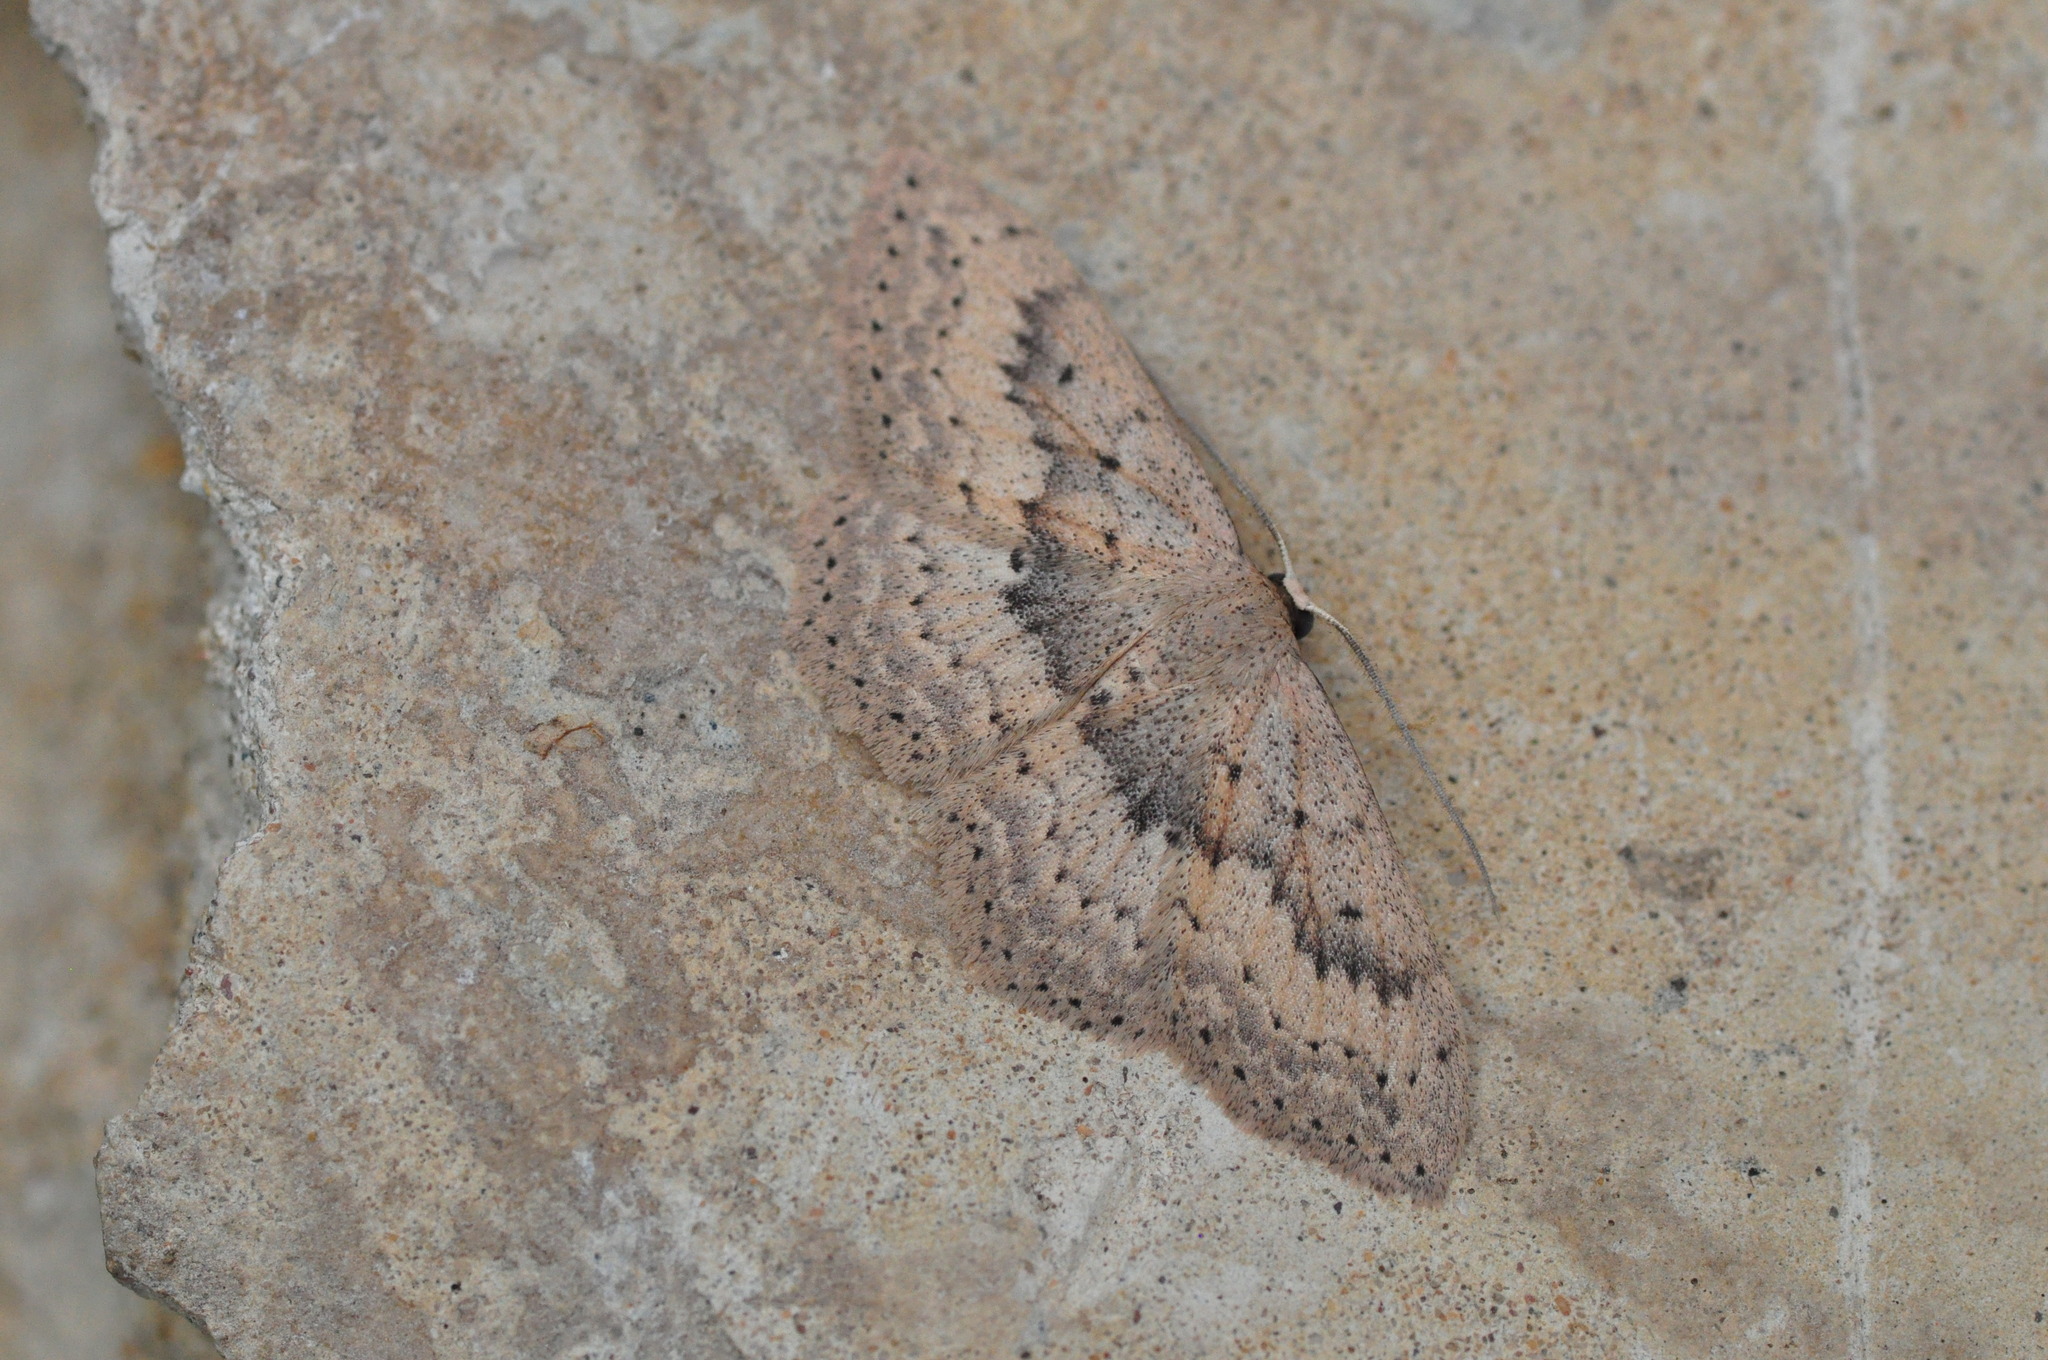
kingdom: Animalia
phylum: Arthropoda
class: Insecta
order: Lepidoptera
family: Geometridae
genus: Scopula
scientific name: Scopula guancharia
